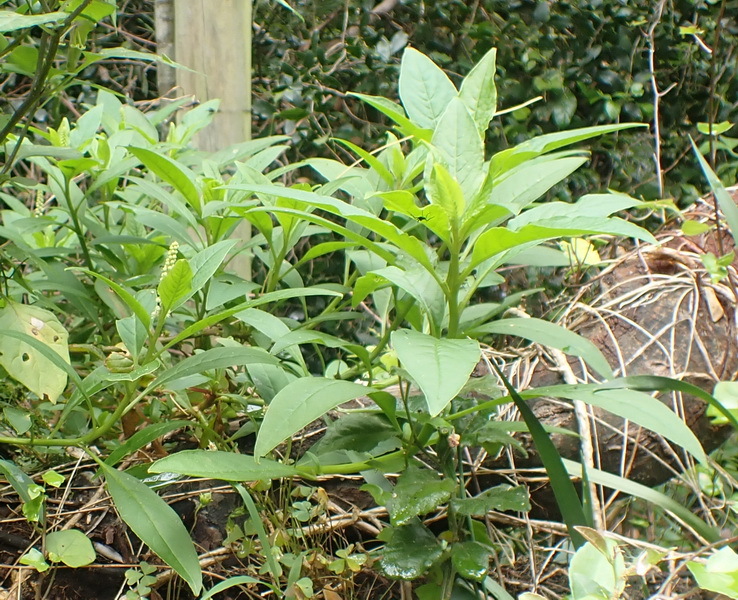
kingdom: Plantae
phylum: Tracheophyta
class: Magnoliopsida
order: Caryophyllales
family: Phytolaccaceae
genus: Phytolacca
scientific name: Phytolacca icosandra
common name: Button pokeweed
